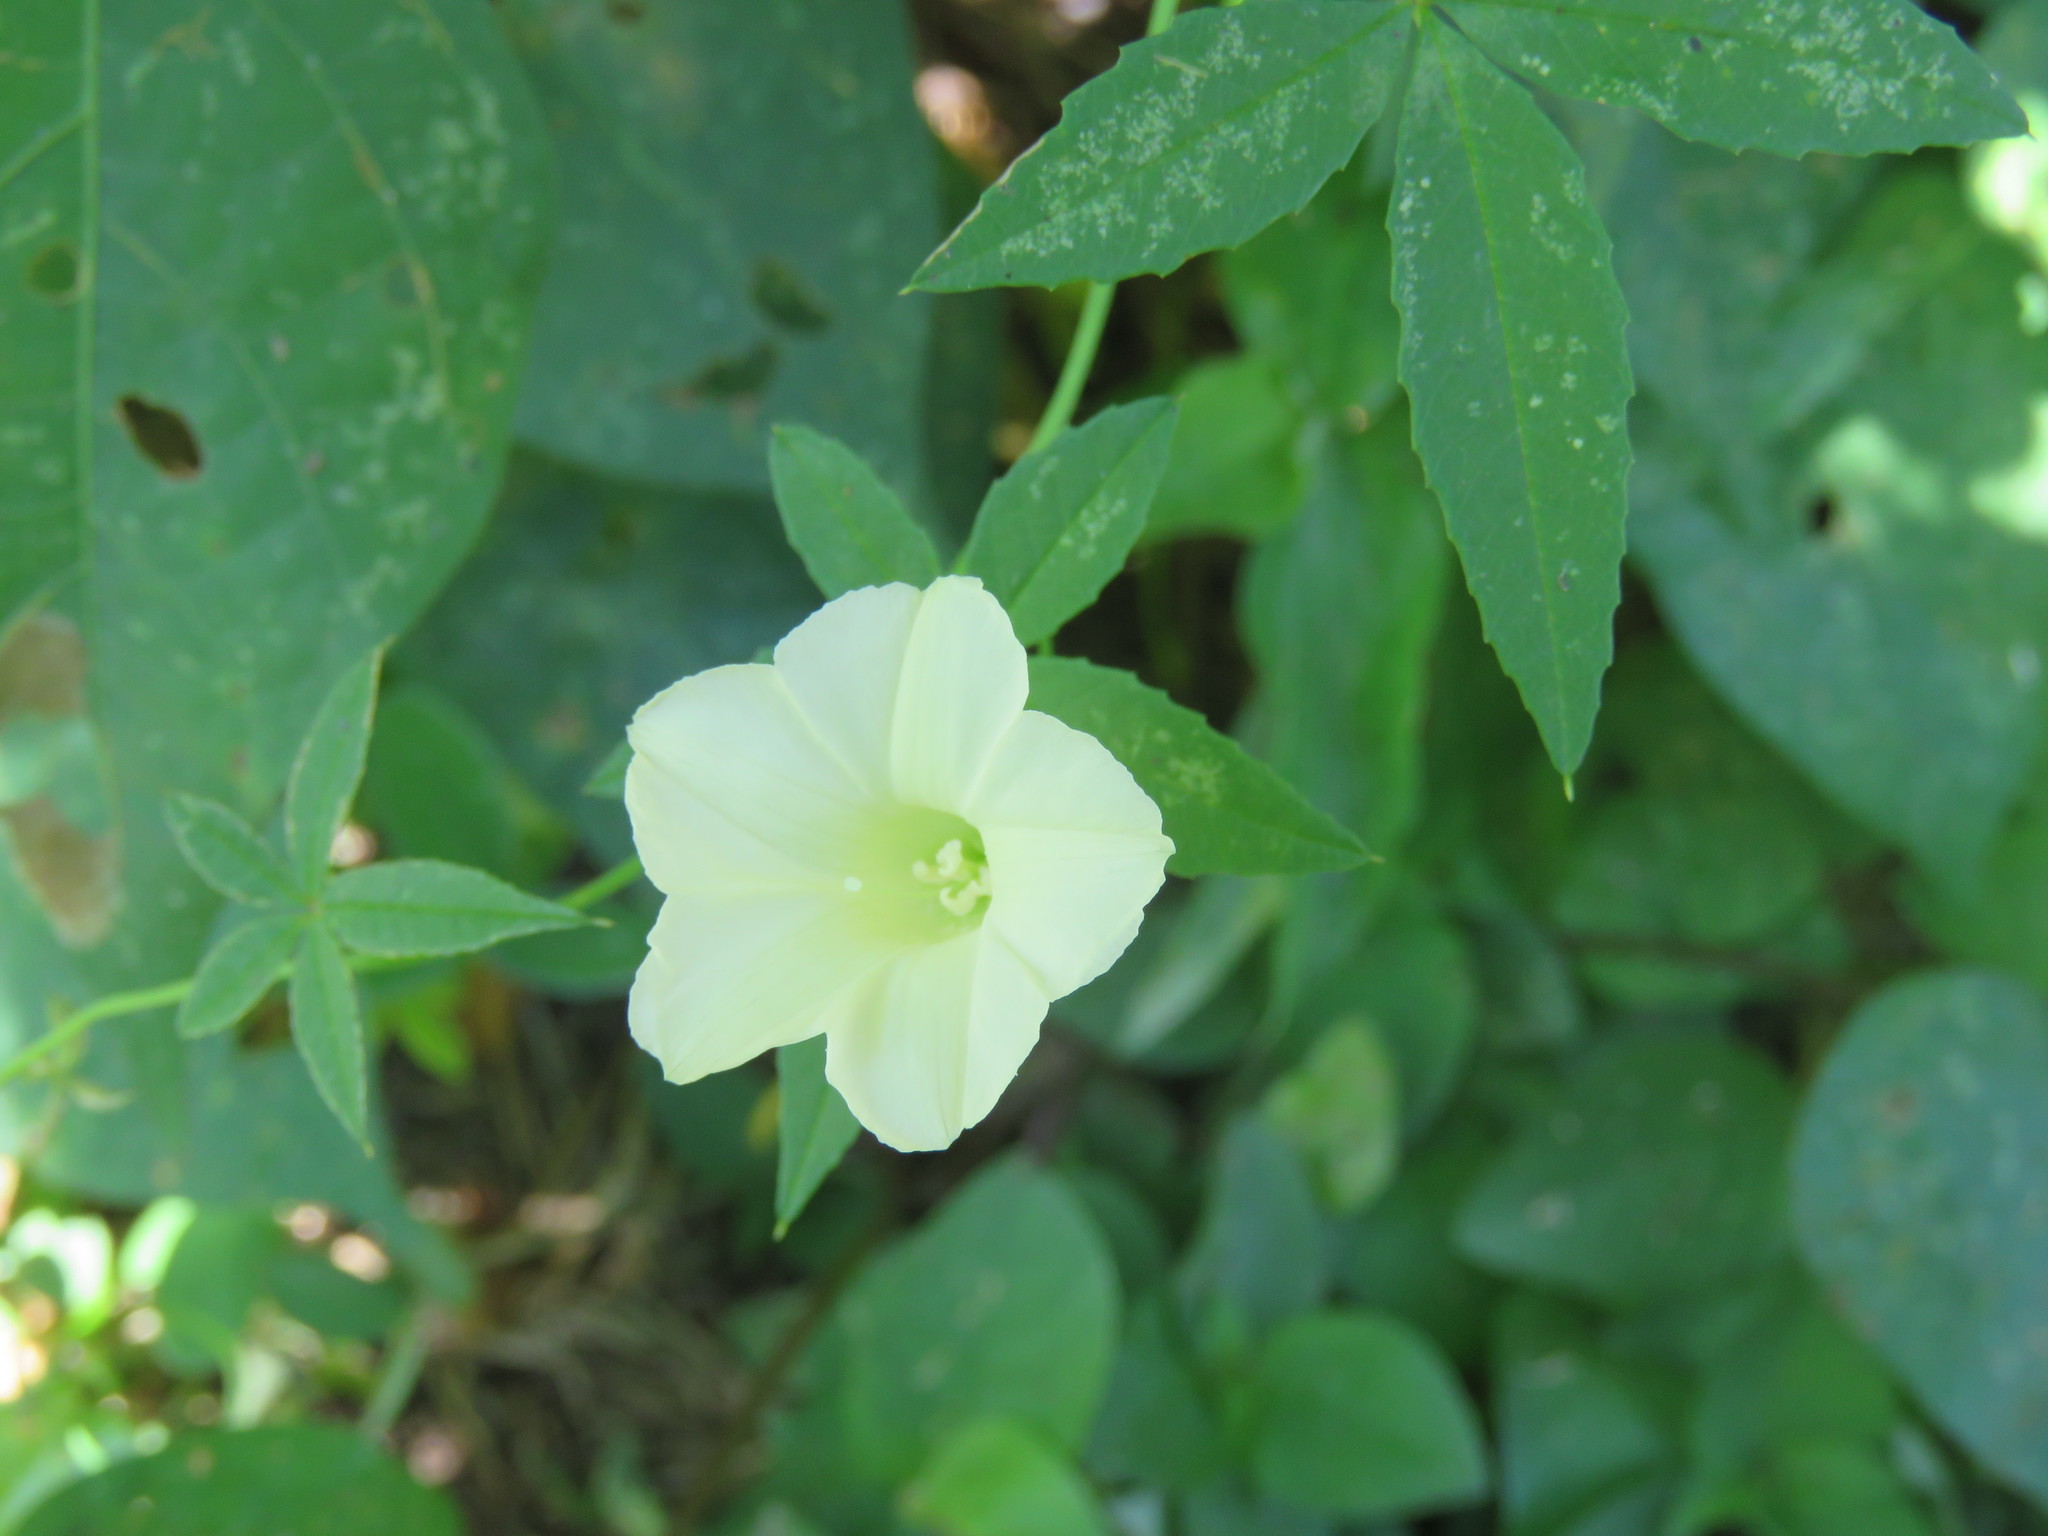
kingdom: Plantae
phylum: Tracheophyta
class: Magnoliopsida
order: Solanales
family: Convolvulaceae
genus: Distimake
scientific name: Distimake quinquefolius
